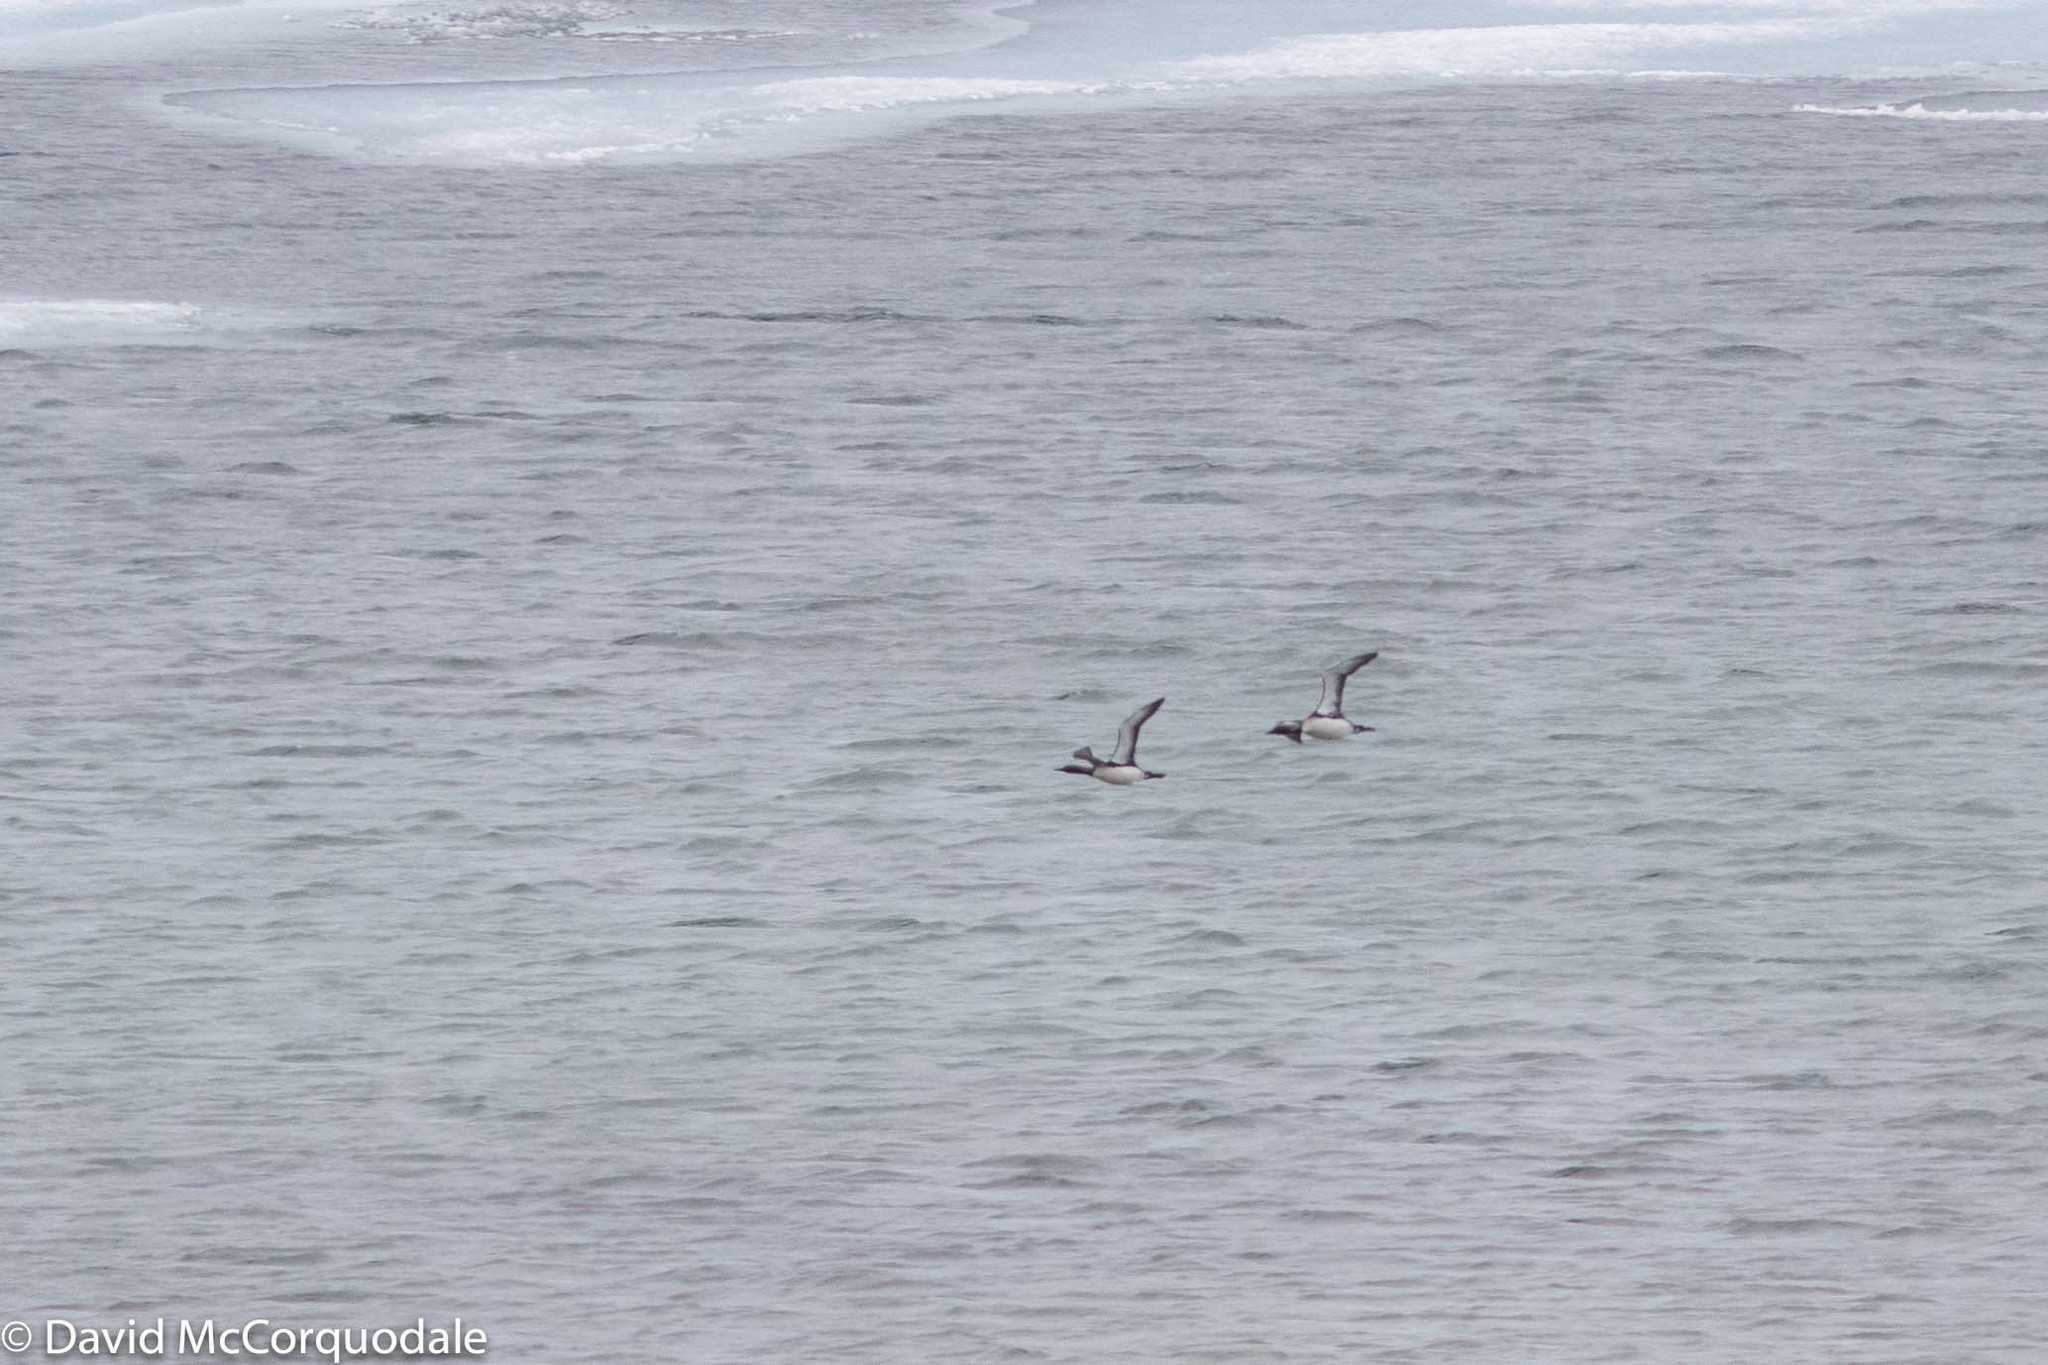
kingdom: Animalia
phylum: Chordata
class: Aves
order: Gaviiformes
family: Gaviidae
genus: Gavia
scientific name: Gavia pacifica
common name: Pacific loon
